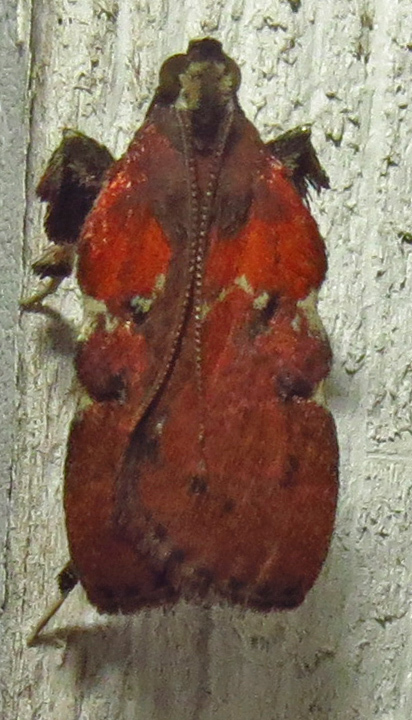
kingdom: Animalia
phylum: Arthropoda
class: Insecta
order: Lepidoptera
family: Pyralidae
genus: Galasa
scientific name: Galasa nigrinodis
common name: Boxwood leaftier moth
